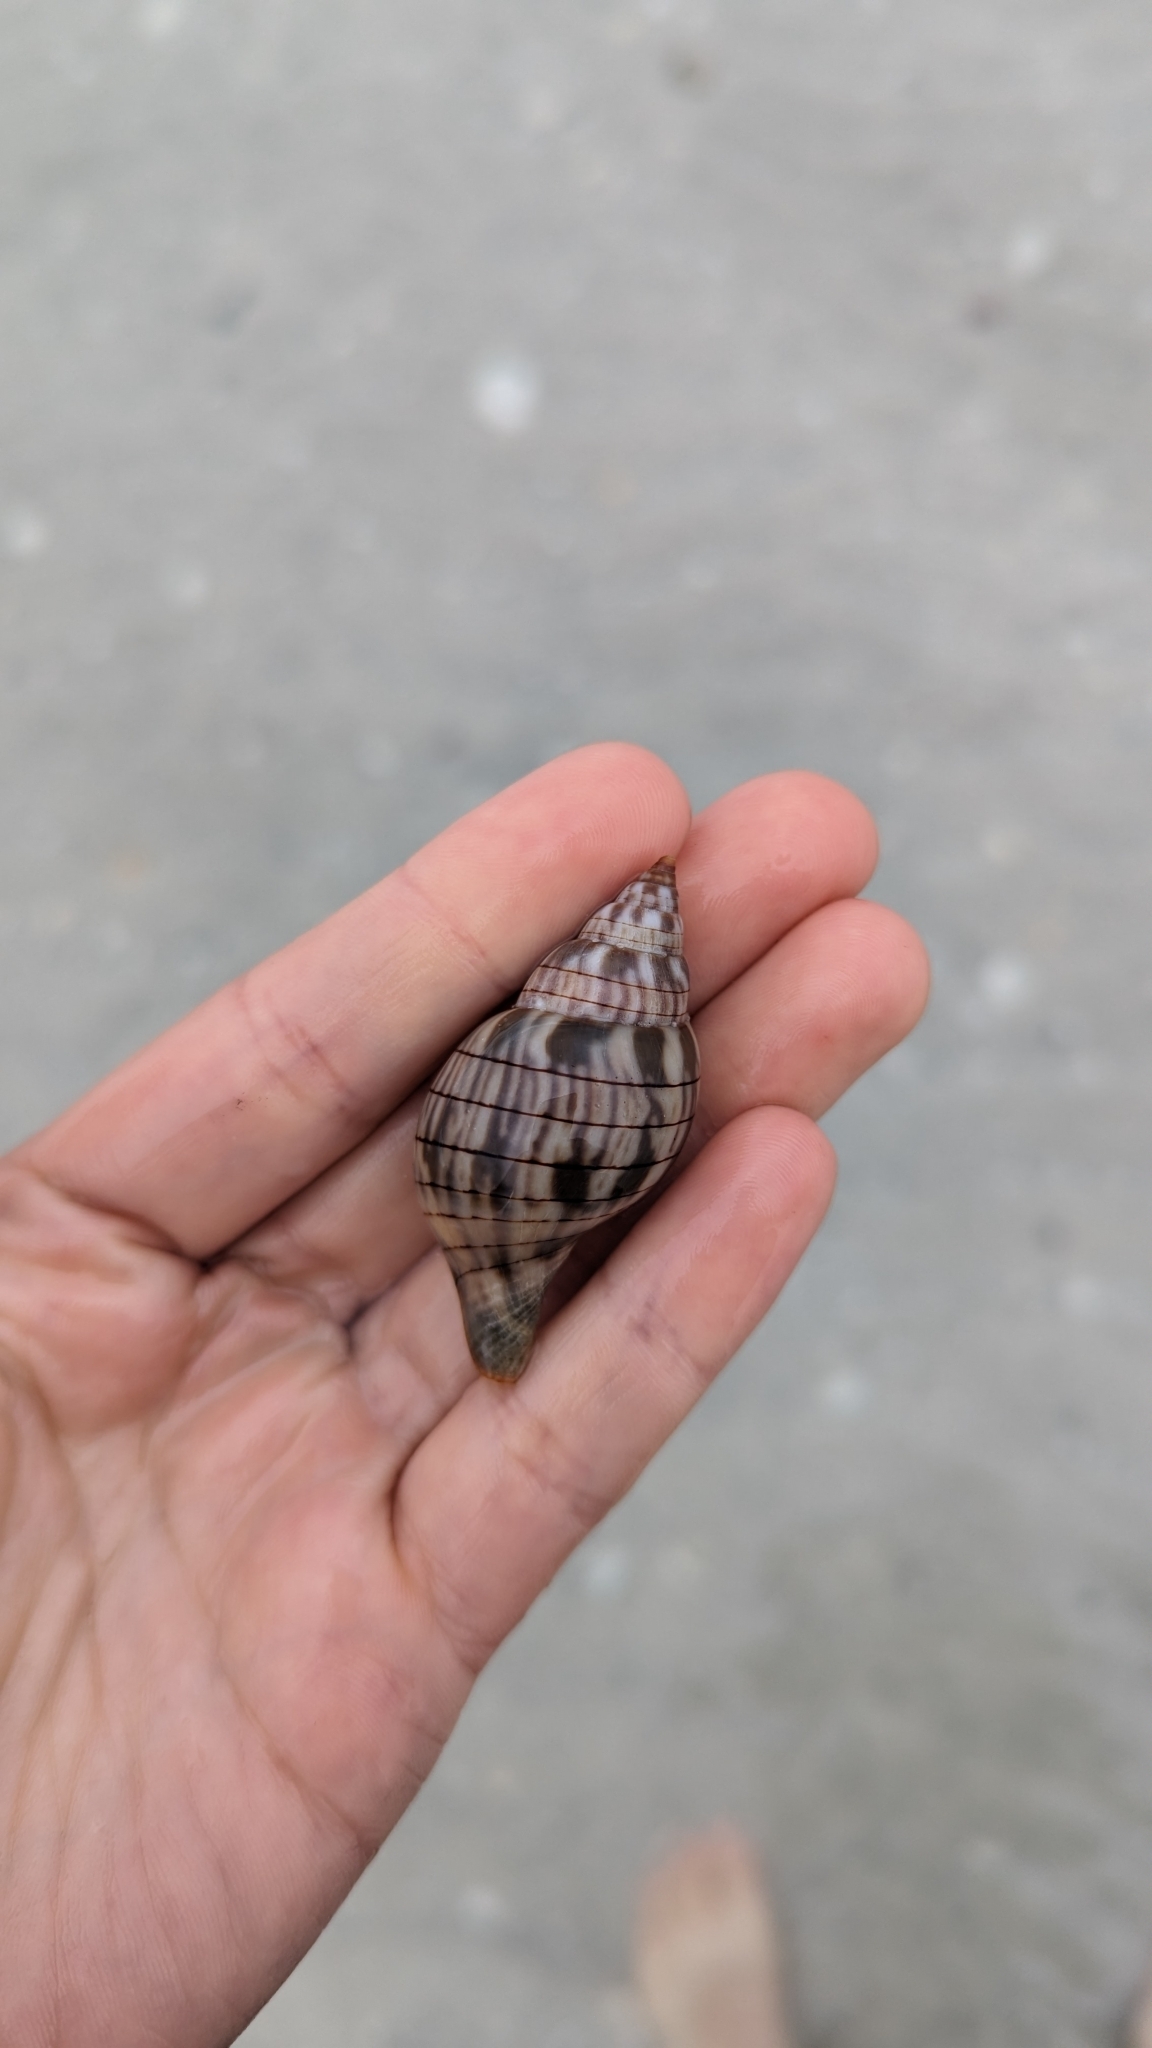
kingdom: Animalia
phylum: Mollusca
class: Gastropoda
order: Neogastropoda
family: Fasciolariidae
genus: Cinctura
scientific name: Cinctura hunteria
